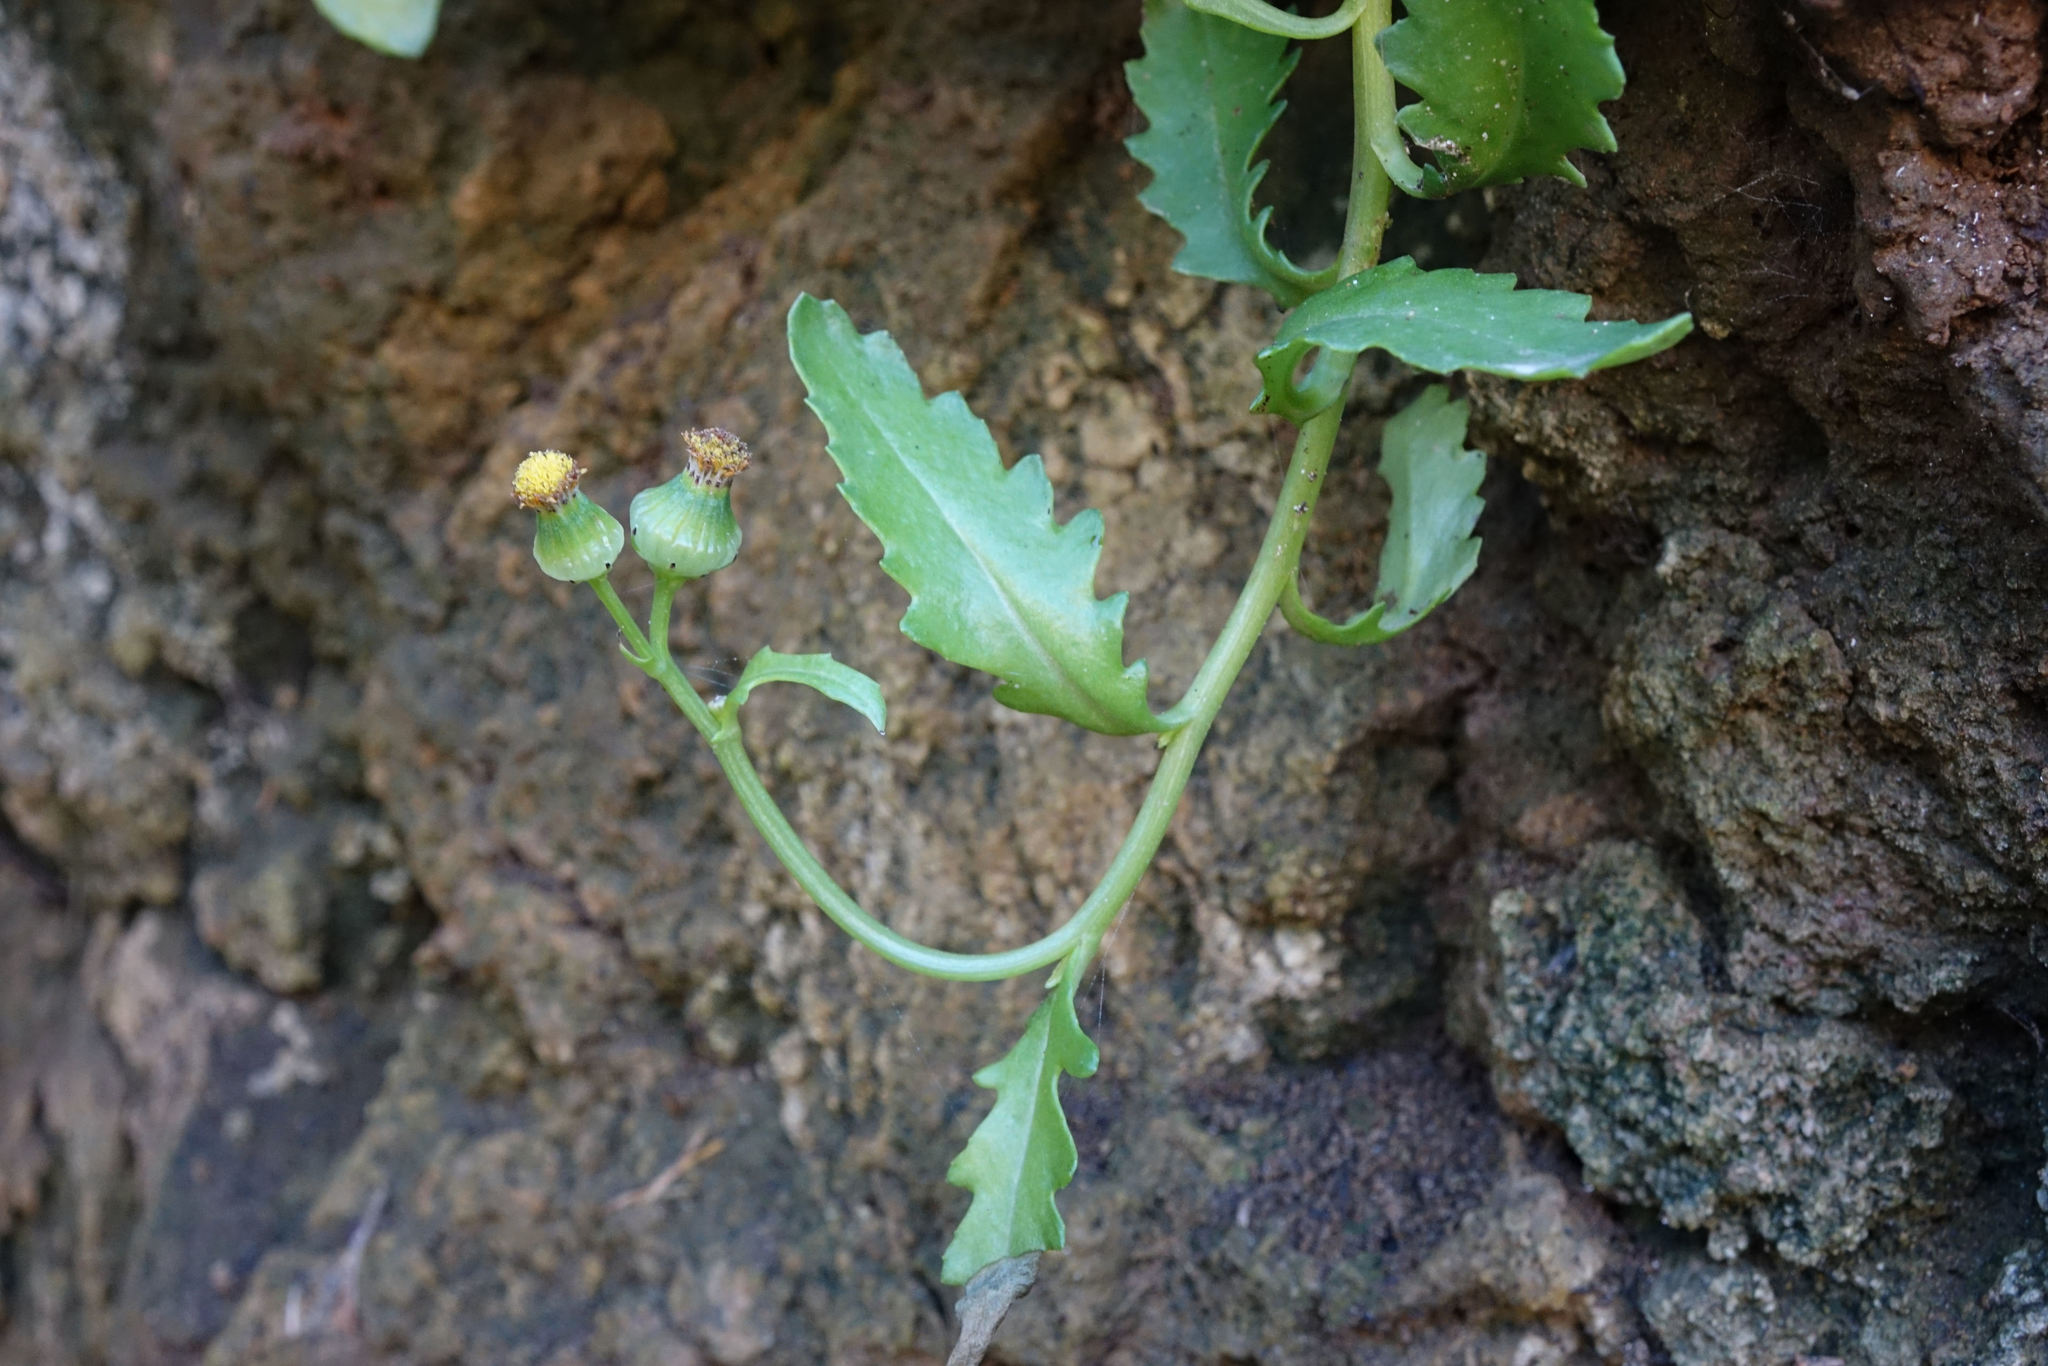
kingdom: Plantae
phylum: Tracheophyta
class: Magnoliopsida
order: Asterales
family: Asteraceae
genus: Senecio
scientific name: Senecio matatini
